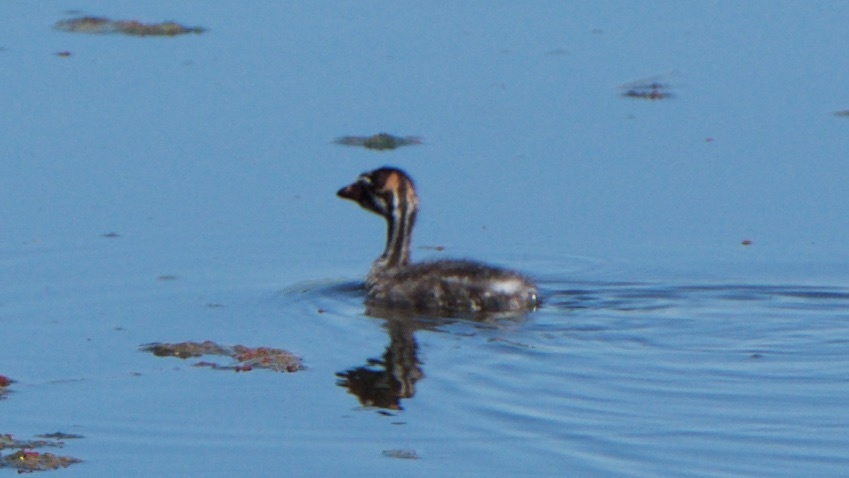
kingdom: Animalia
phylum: Chordata
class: Aves
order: Podicipediformes
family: Podicipedidae
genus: Podilymbus
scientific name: Podilymbus podiceps
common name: Pied-billed grebe
